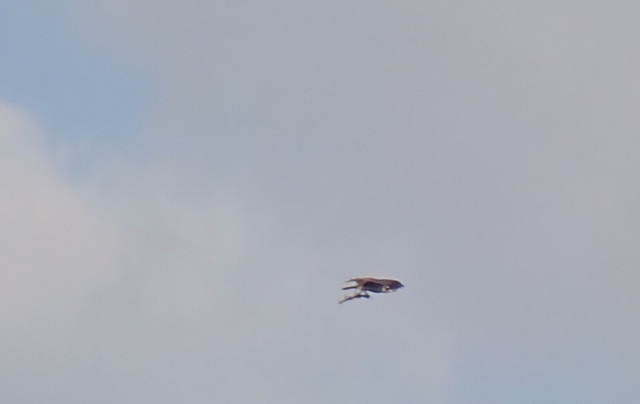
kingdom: Animalia
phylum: Chordata
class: Aves
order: Accipitriformes
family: Pandionidae
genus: Pandion
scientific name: Pandion haliaetus
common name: Osprey
